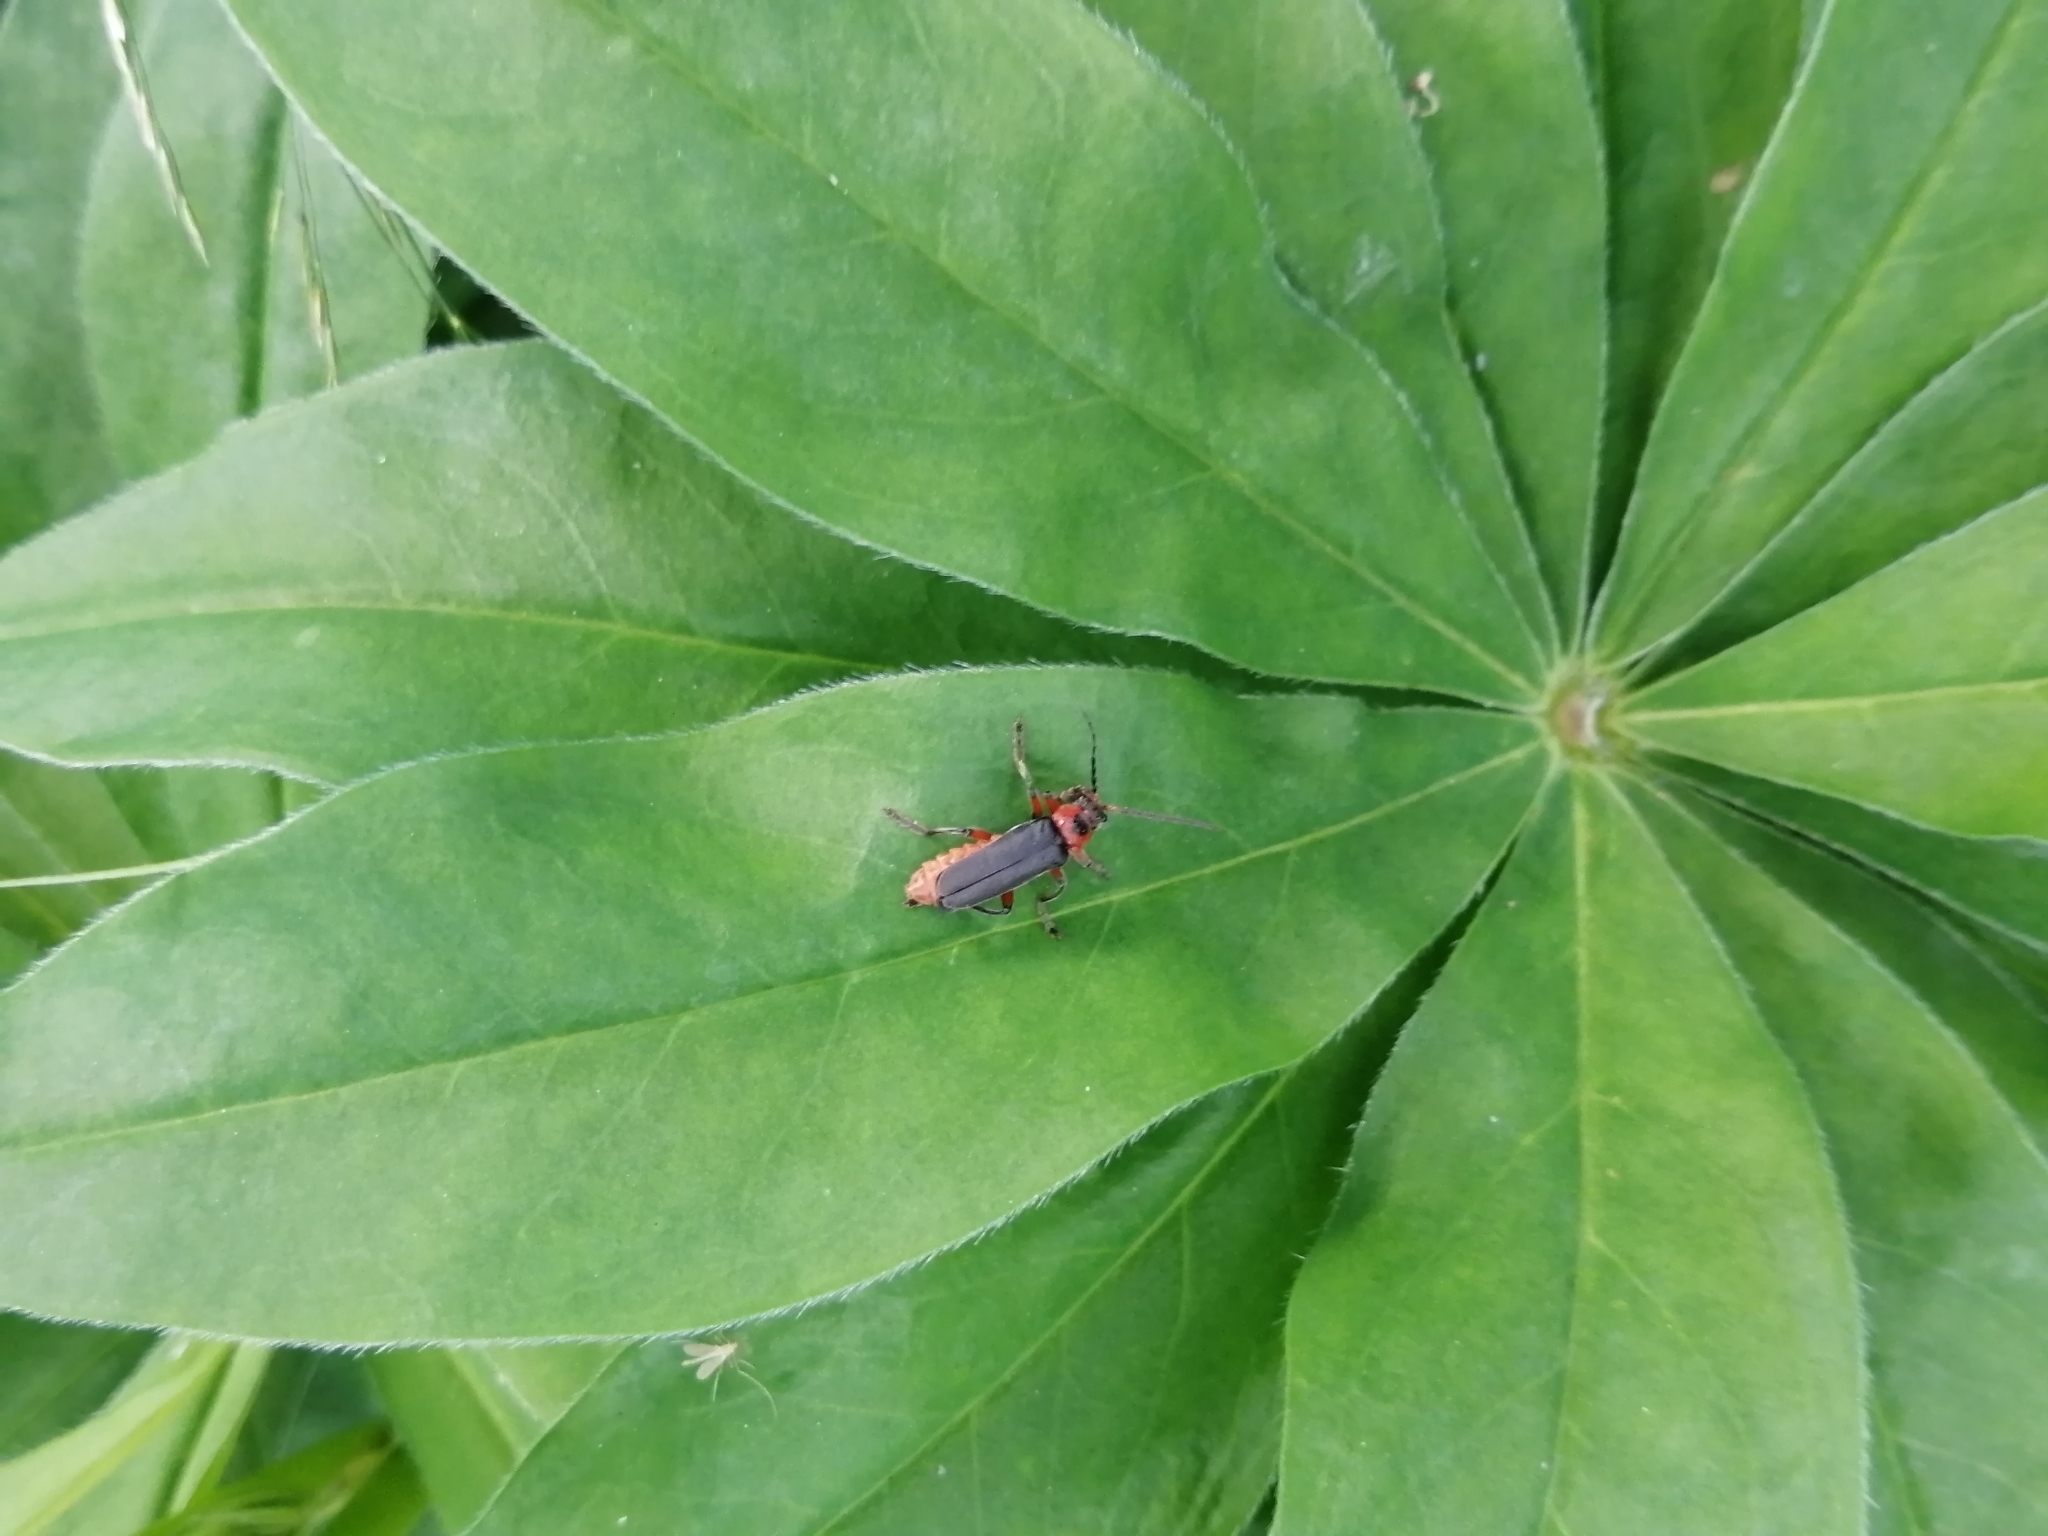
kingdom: Animalia
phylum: Arthropoda
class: Insecta
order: Coleoptera
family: Cantharidae
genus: Cantharis
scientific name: Cantharis rustica
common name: Soldier beetle
